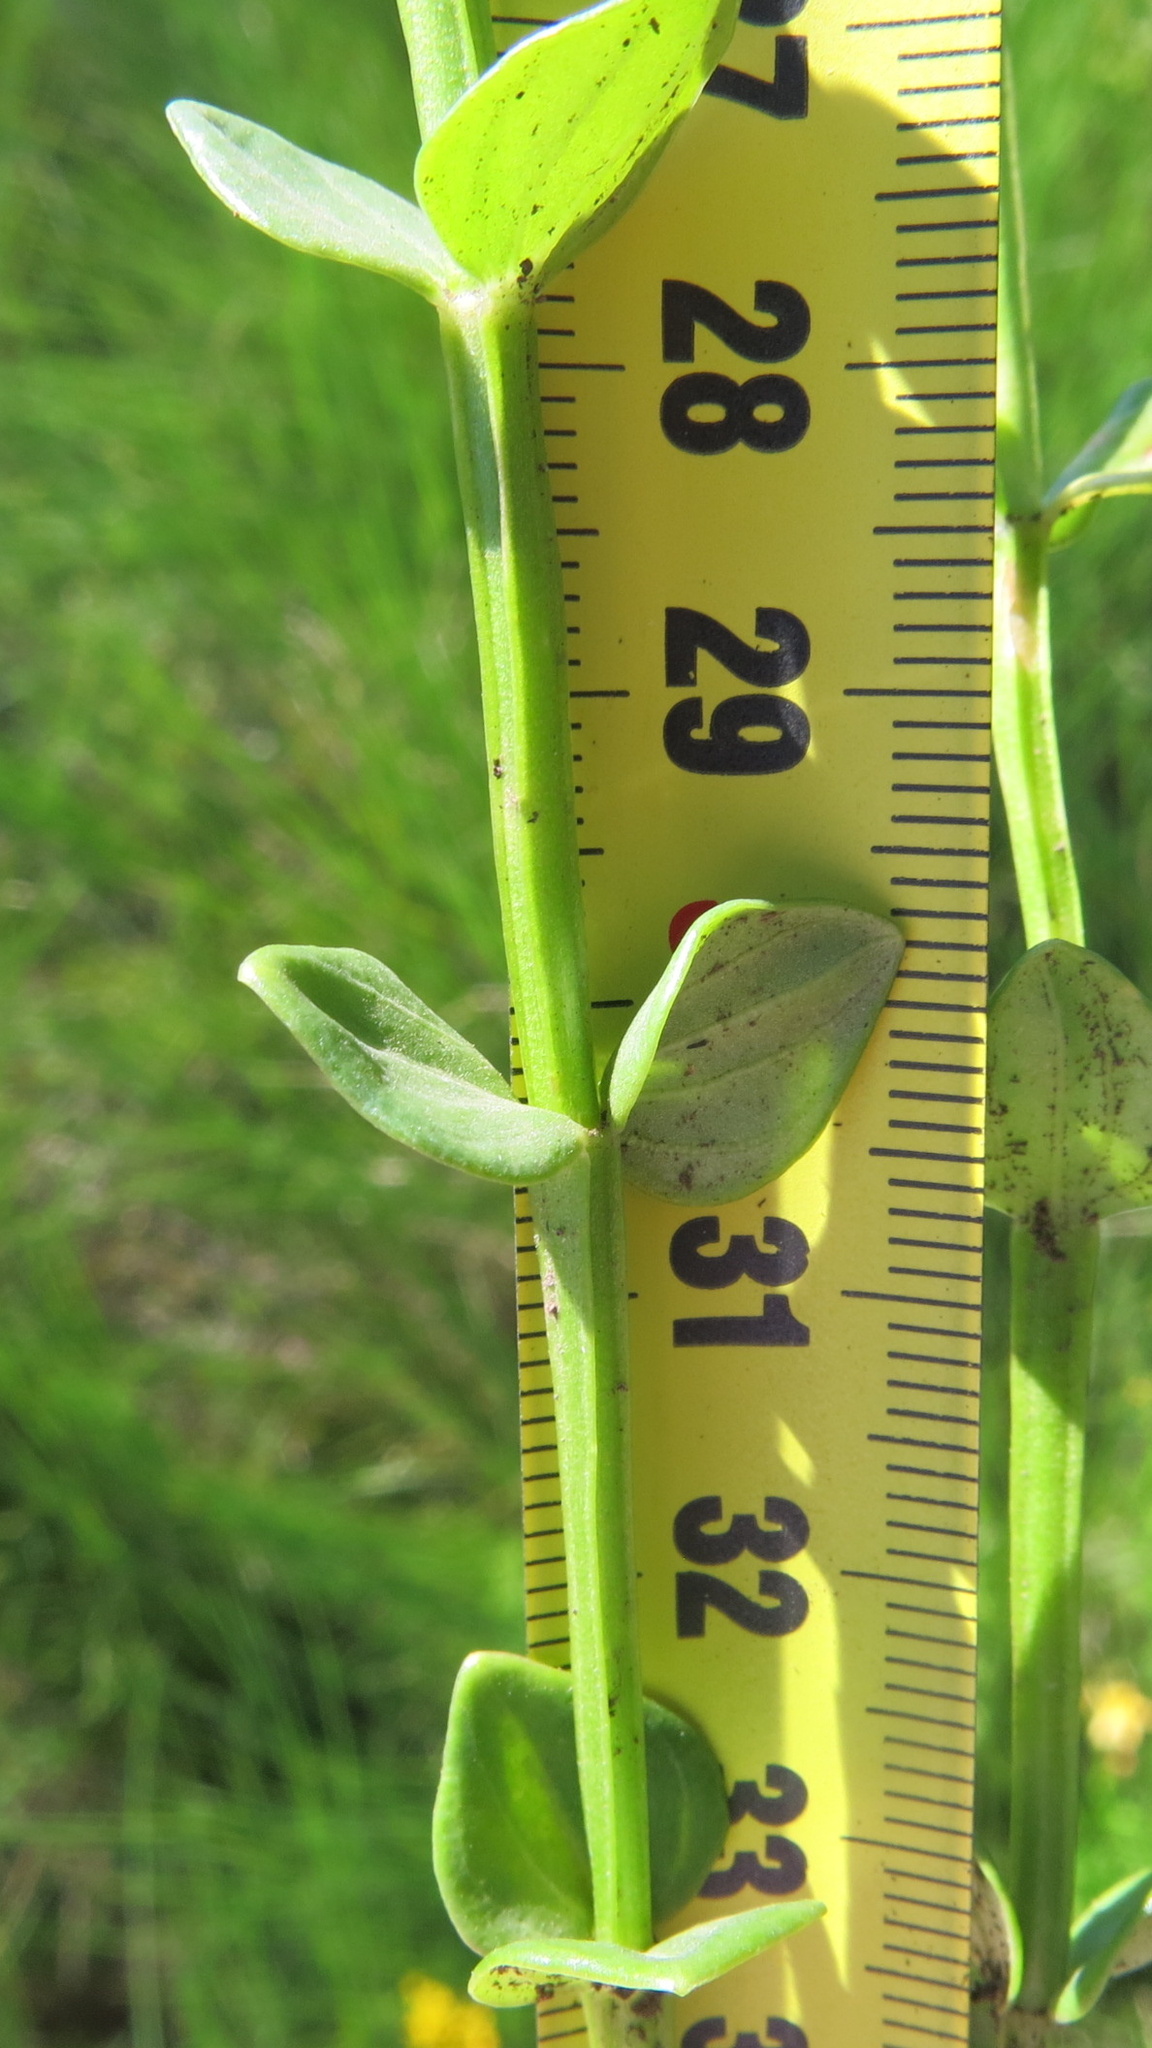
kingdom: Plantae
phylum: Tracheophyta
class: Magnoliopsida
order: Gentianales
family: Gentianaceae
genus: Sebaea
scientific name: Sebaea sedoides
